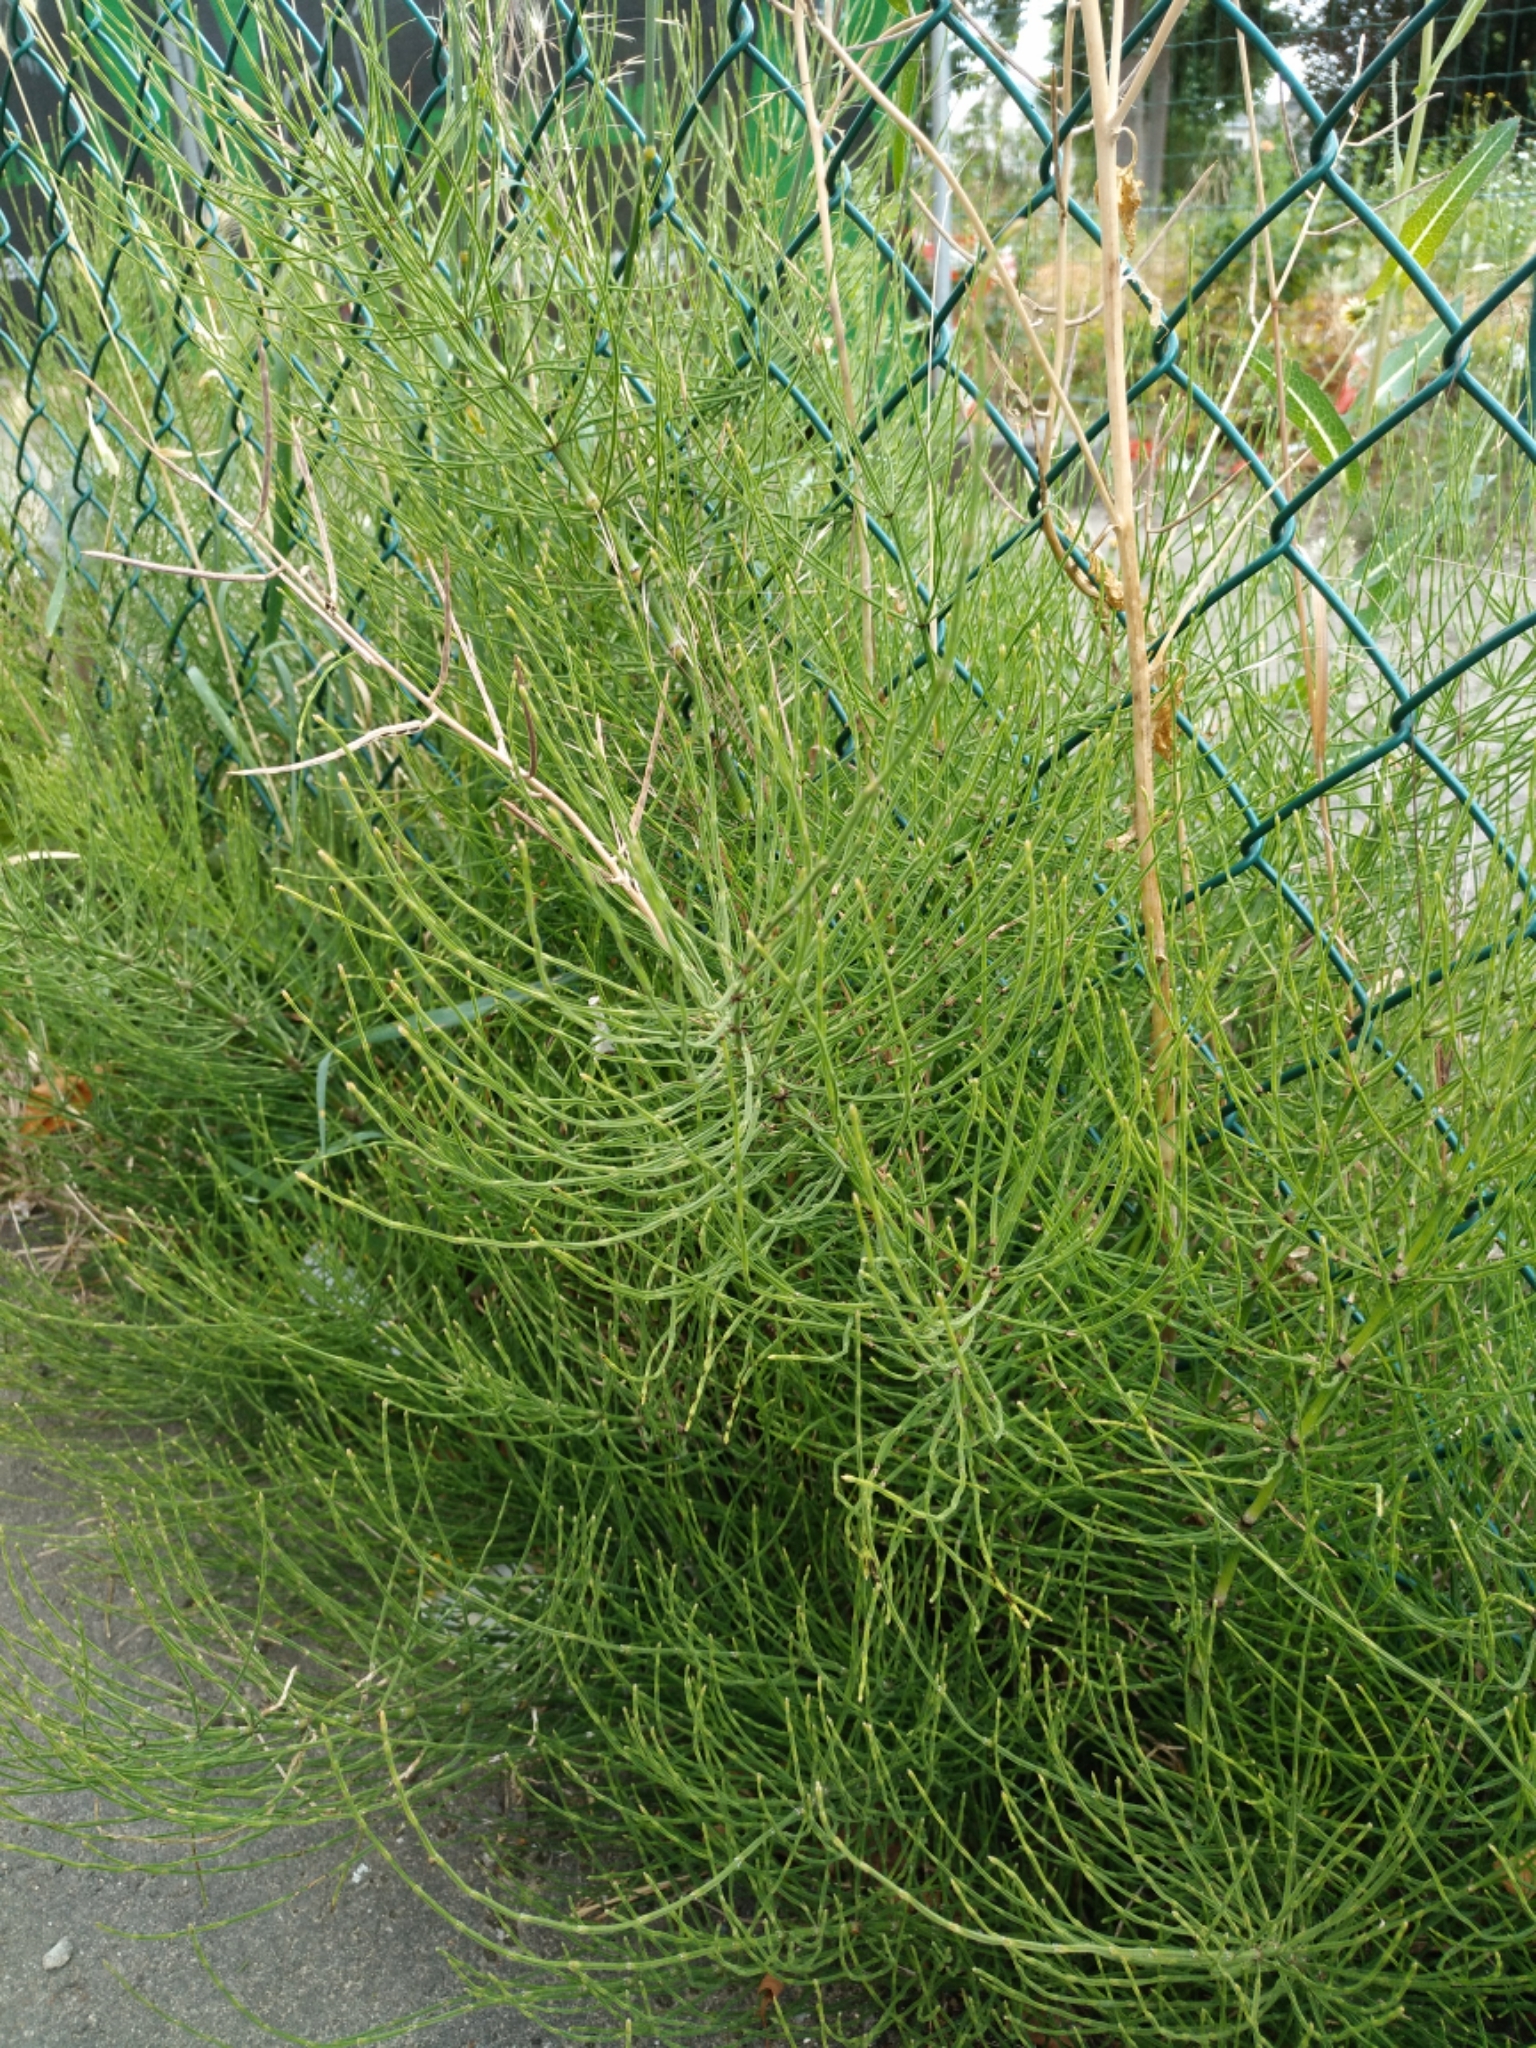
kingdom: Plantae
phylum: Tracheophyta
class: Polypodiopsida
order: Equisetales
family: Equisetaceae
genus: Equisetum
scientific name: Equisetum arvense
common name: Field horsetail
